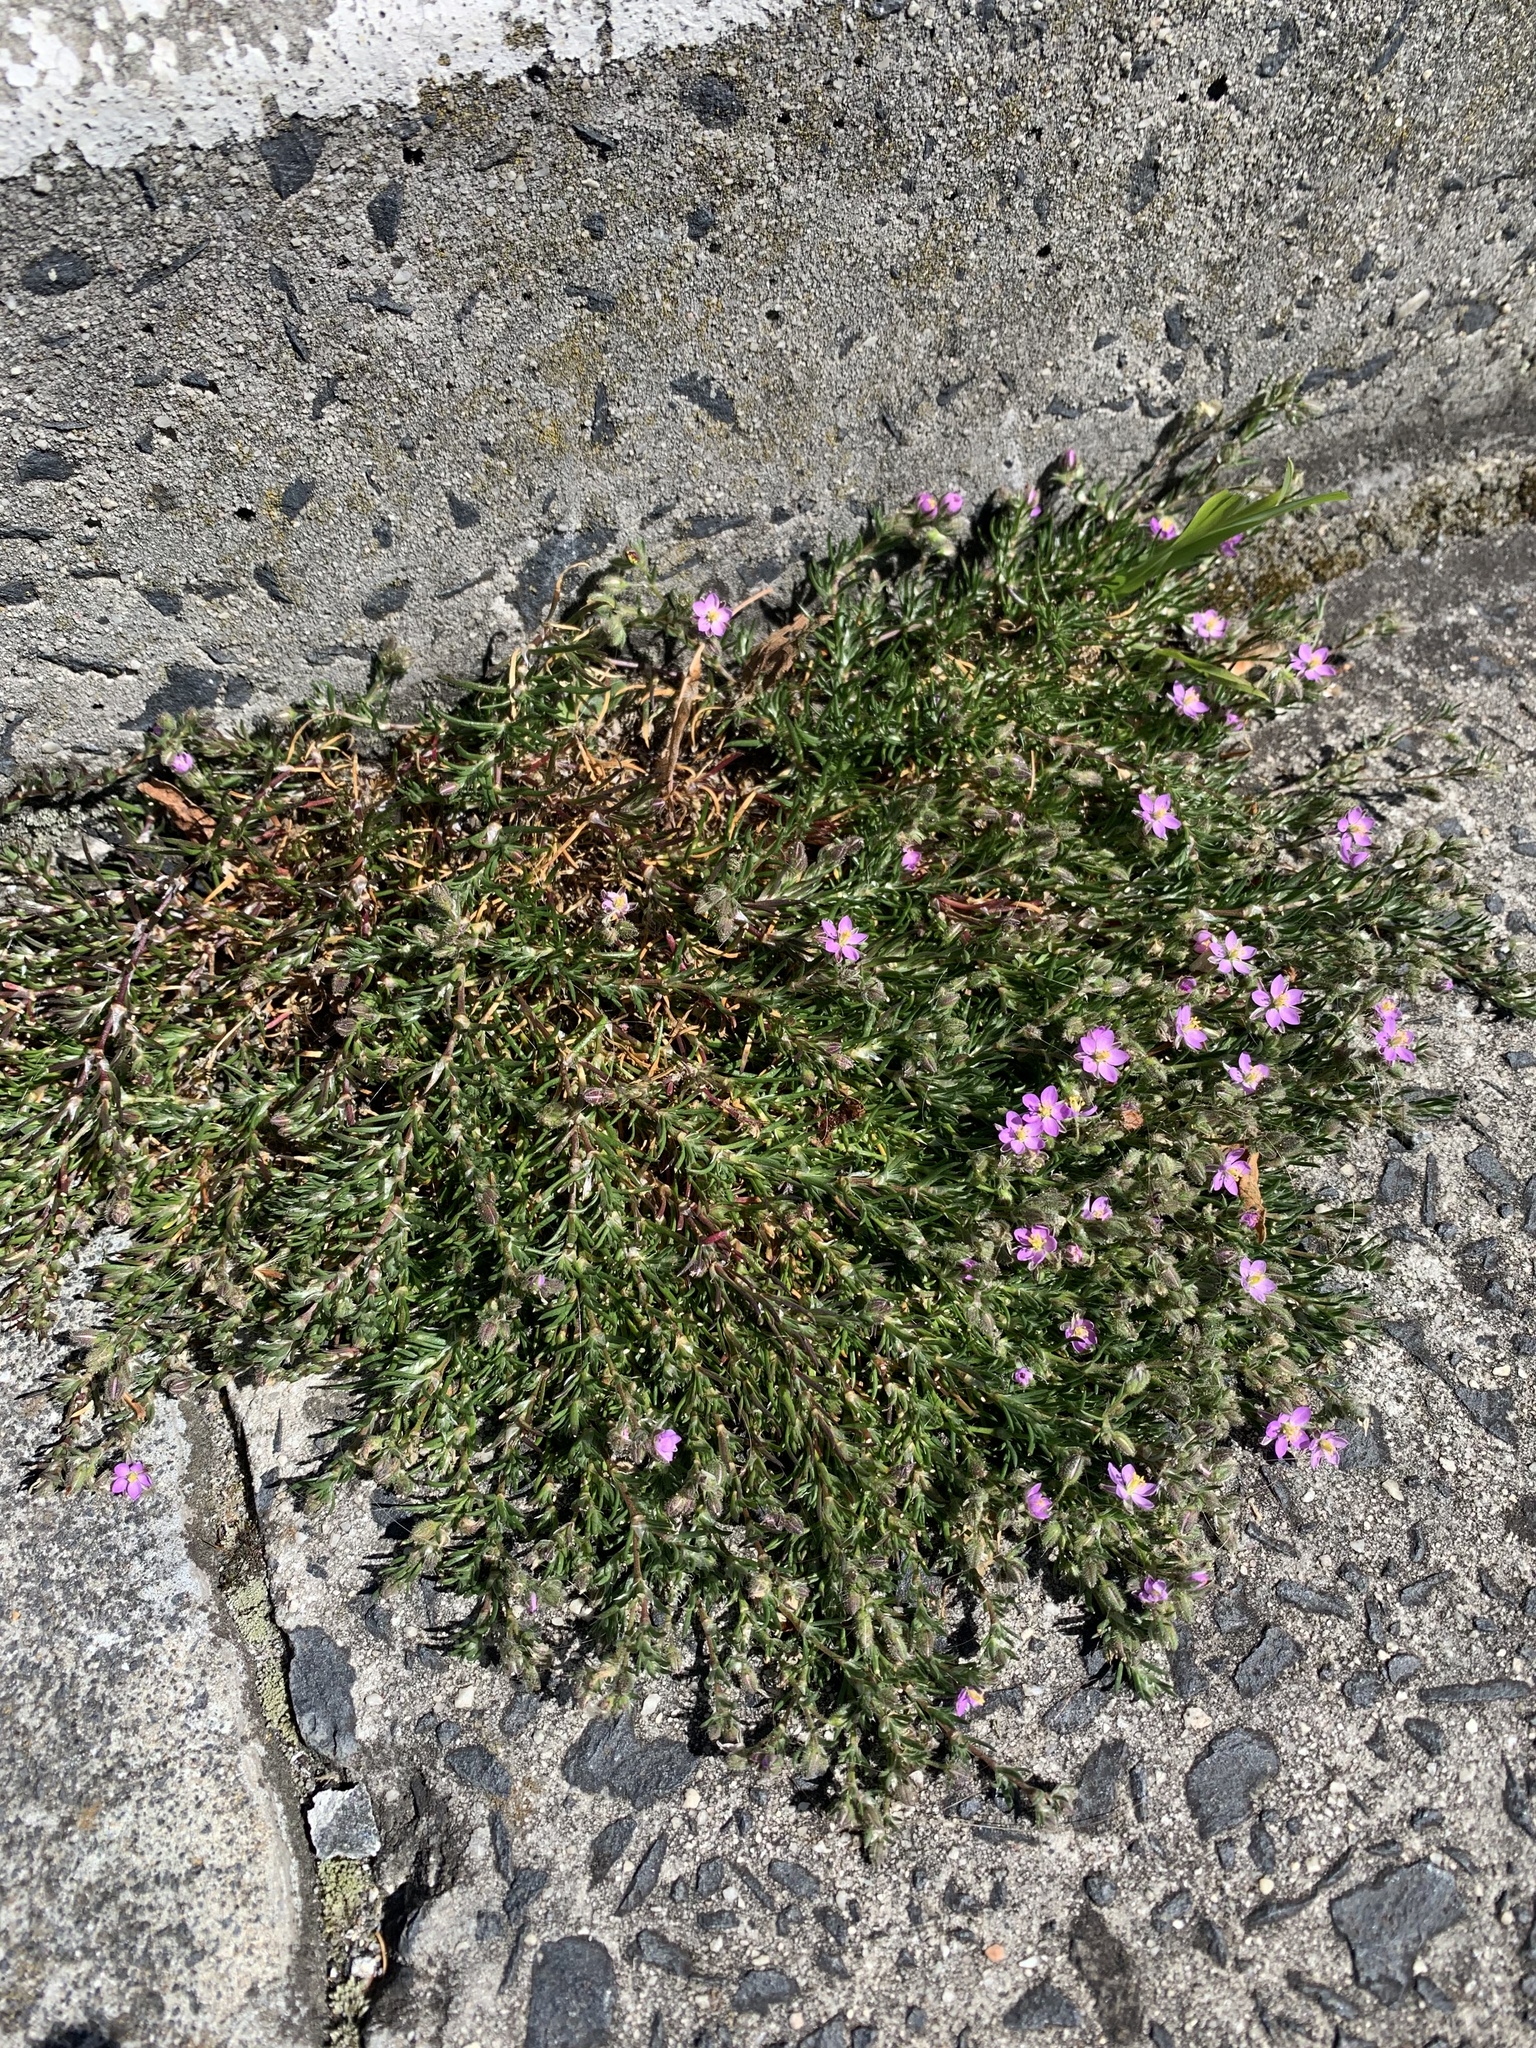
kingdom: Plantae
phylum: Tracheophyta
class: Magnoliopsida
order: Caryophyllales
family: Caryophyllaceae
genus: Spergularia
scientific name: Spergularia rubra
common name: Red sand-spurrey
